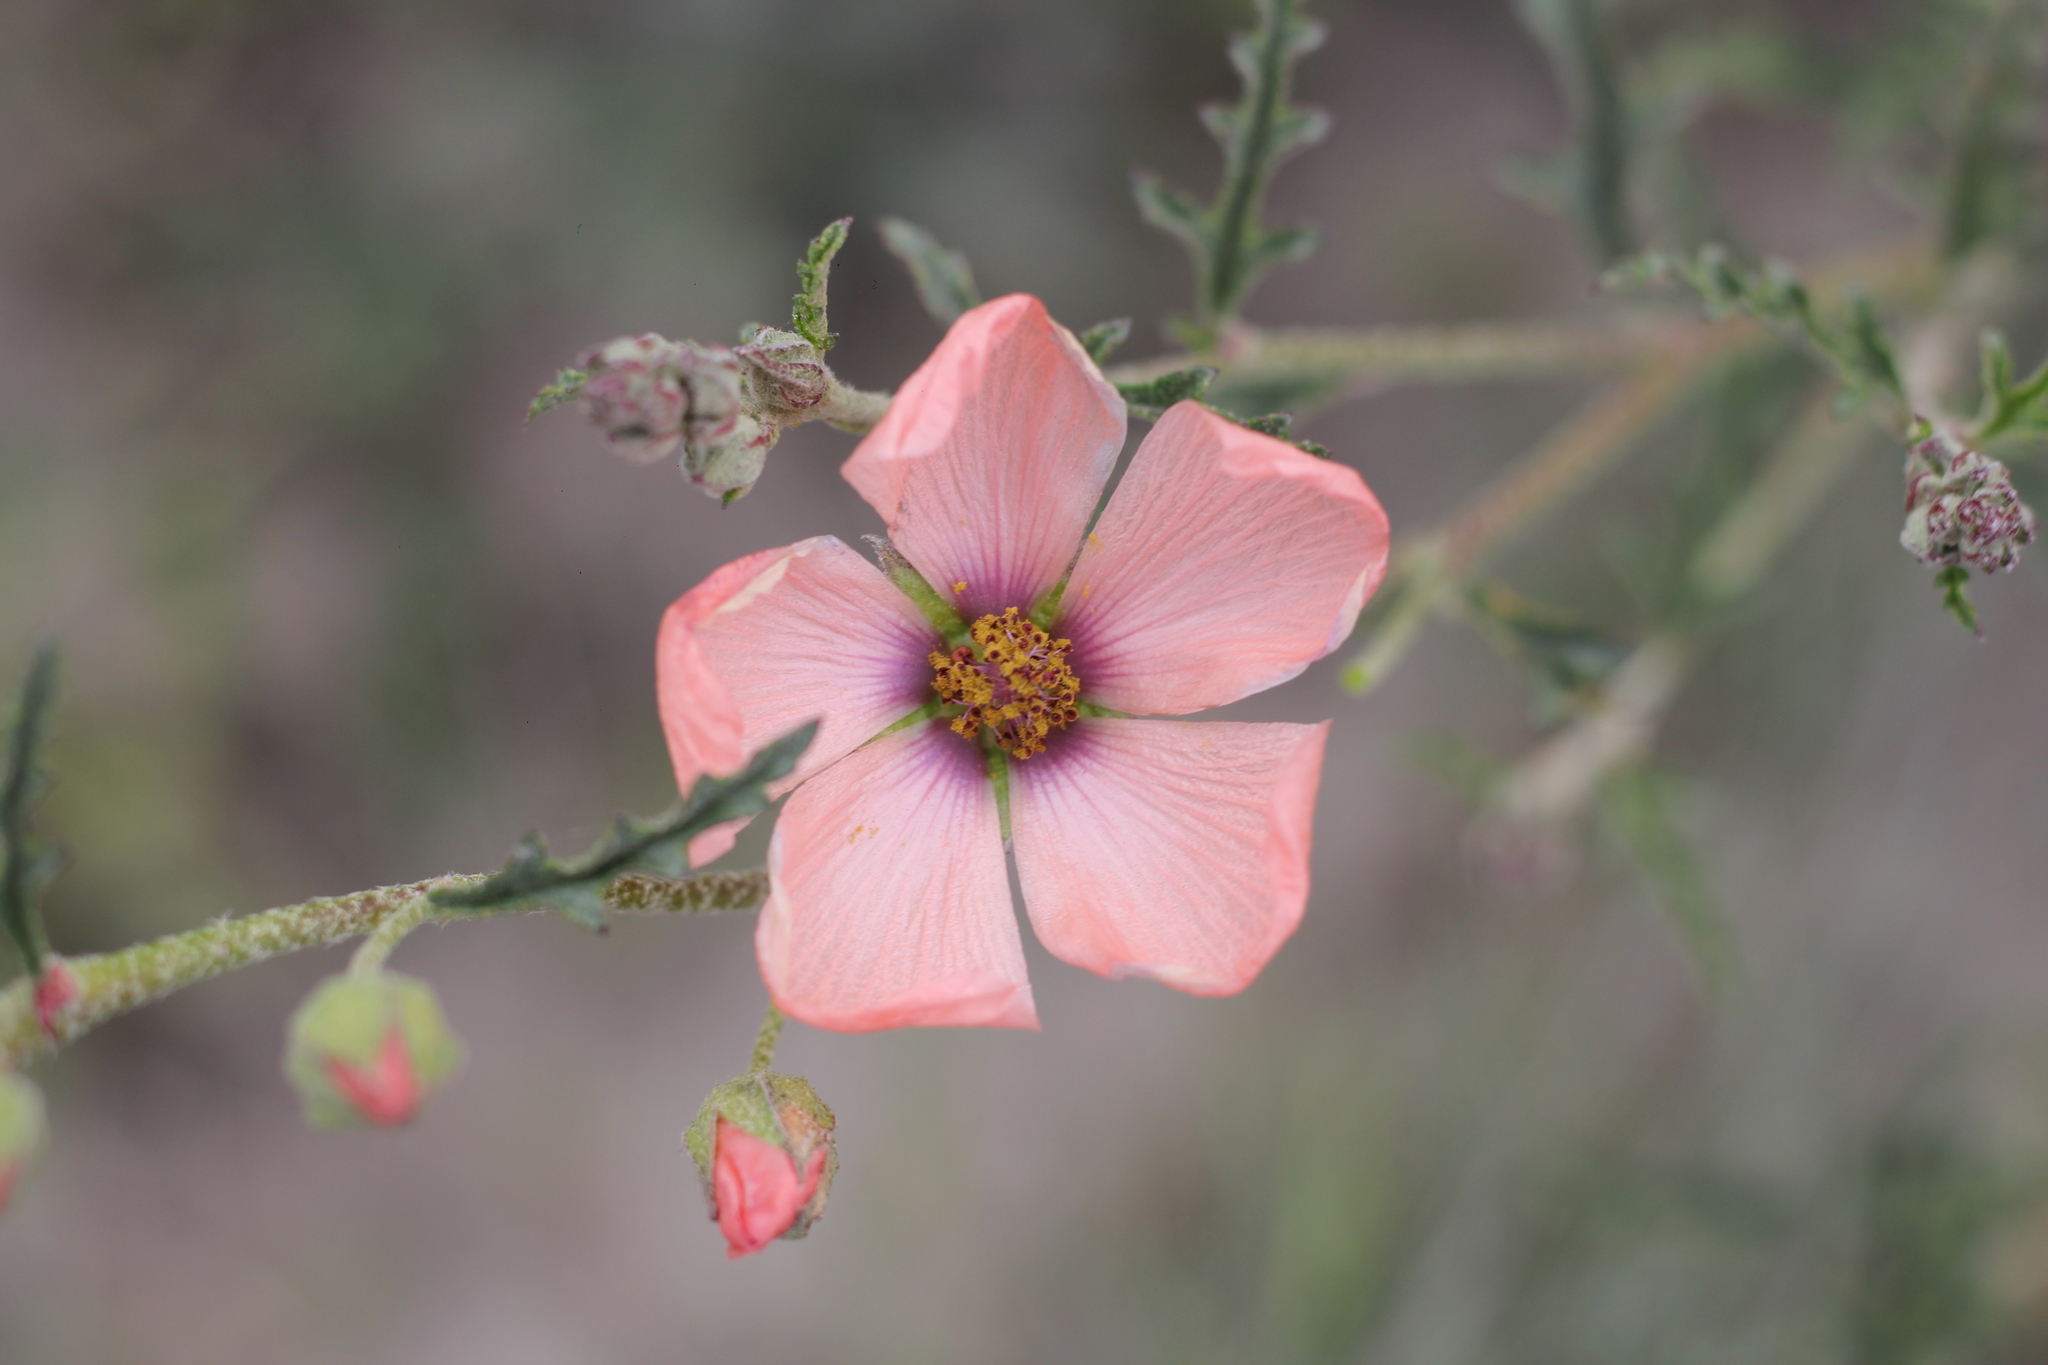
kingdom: Plantae
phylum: Tracheophyta
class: Magnoliopsida
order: Malvales
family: Malvaceae
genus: Sphaeralcea
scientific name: Sphaeralcea chenopodifolia
